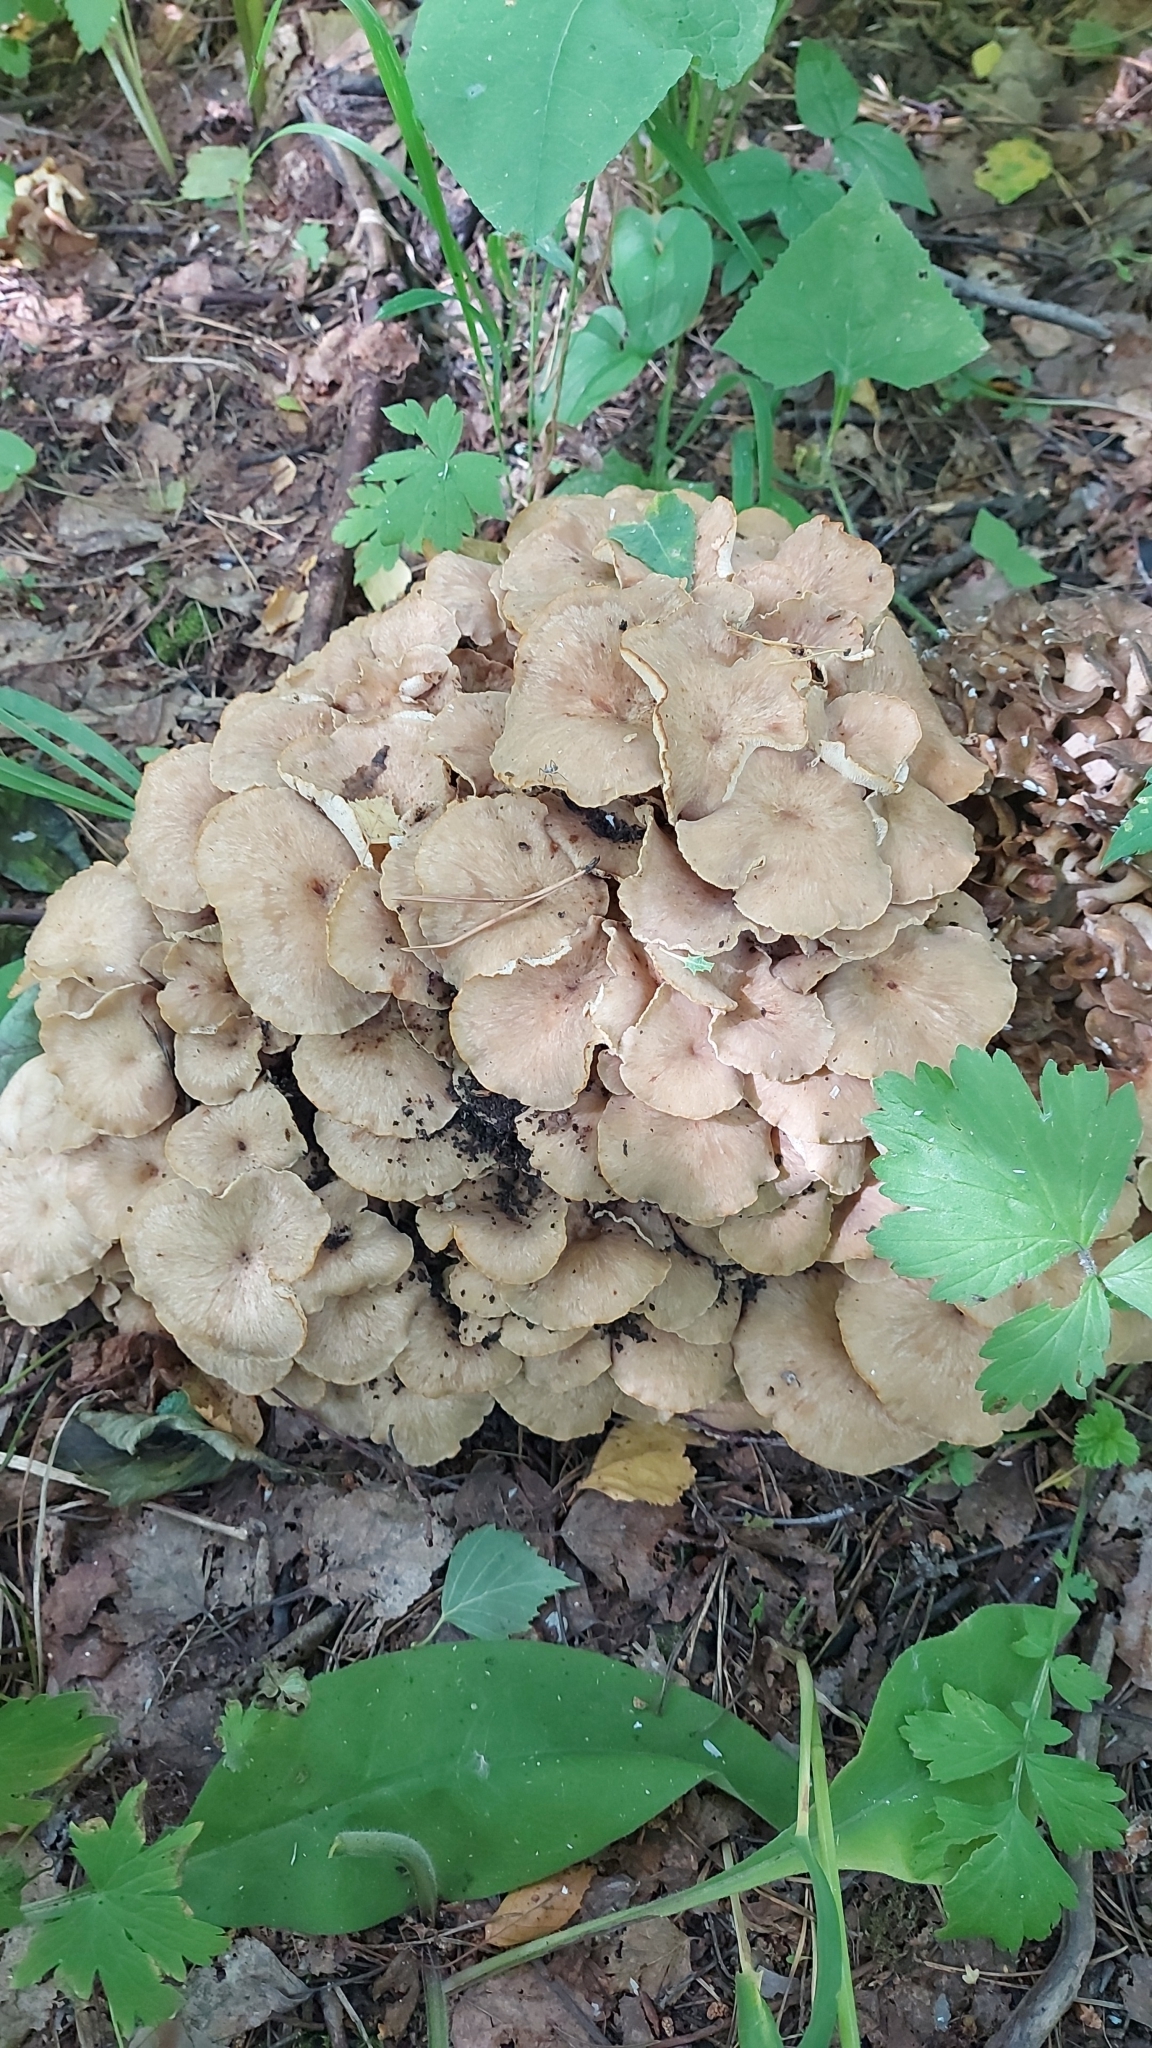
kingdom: Fungi
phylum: Basidiomycota
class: Agaricomycetes
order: Polyporales
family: Polyporaceae
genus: Polyporus
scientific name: Polyporus umbellatus
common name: Umbrella polypore
